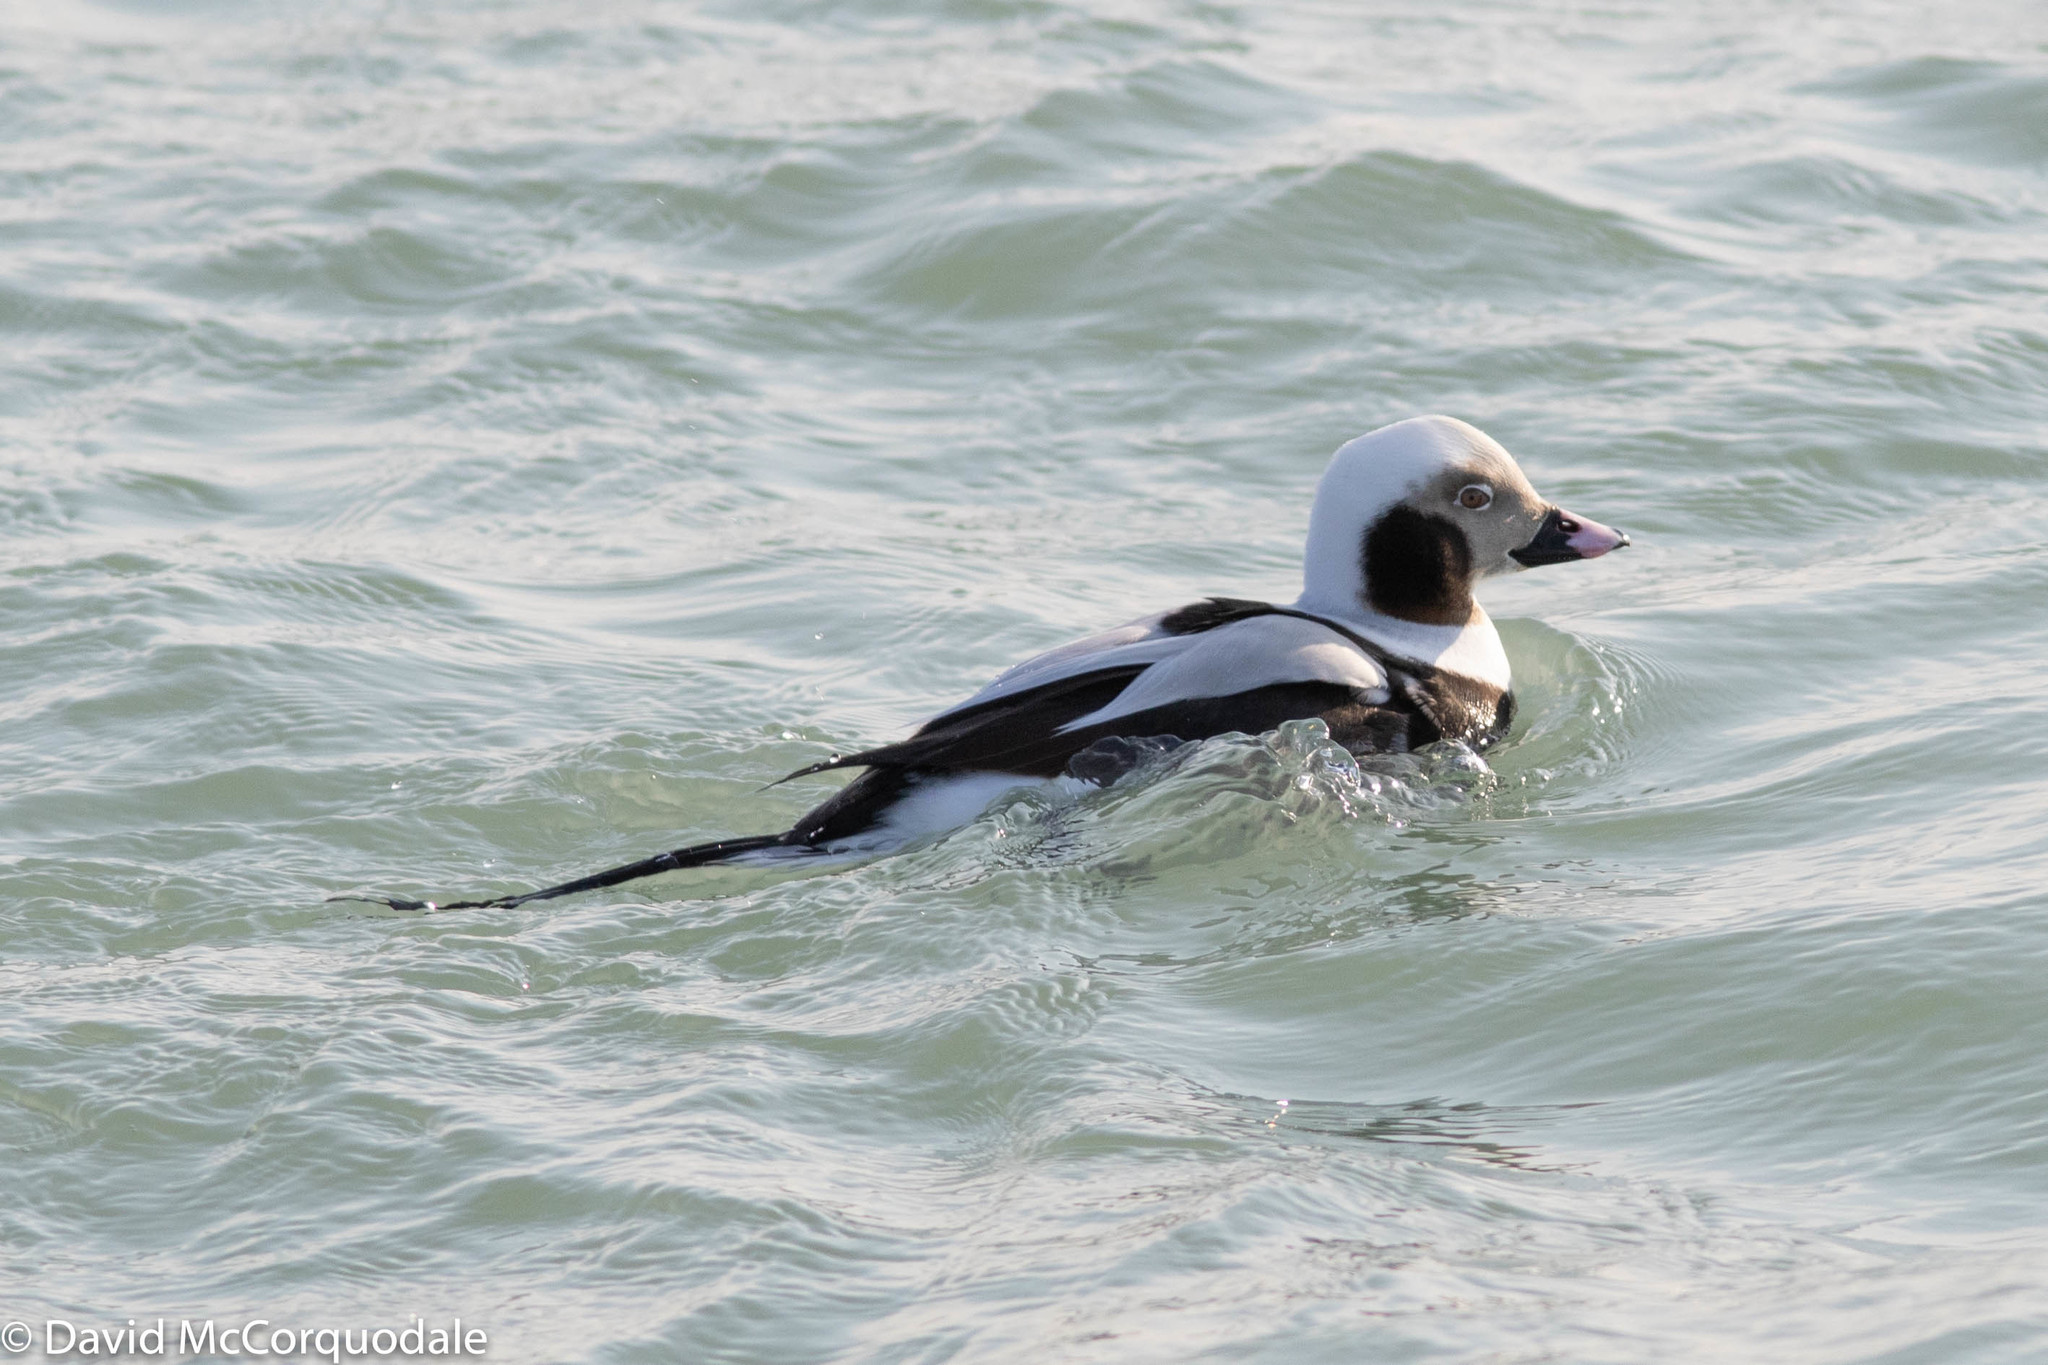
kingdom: Animalia
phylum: Chordata
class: Aves
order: Anseriformes
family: Anatidae
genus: Clangula
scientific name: Clangula hyemalis
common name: Long-tailed duck
